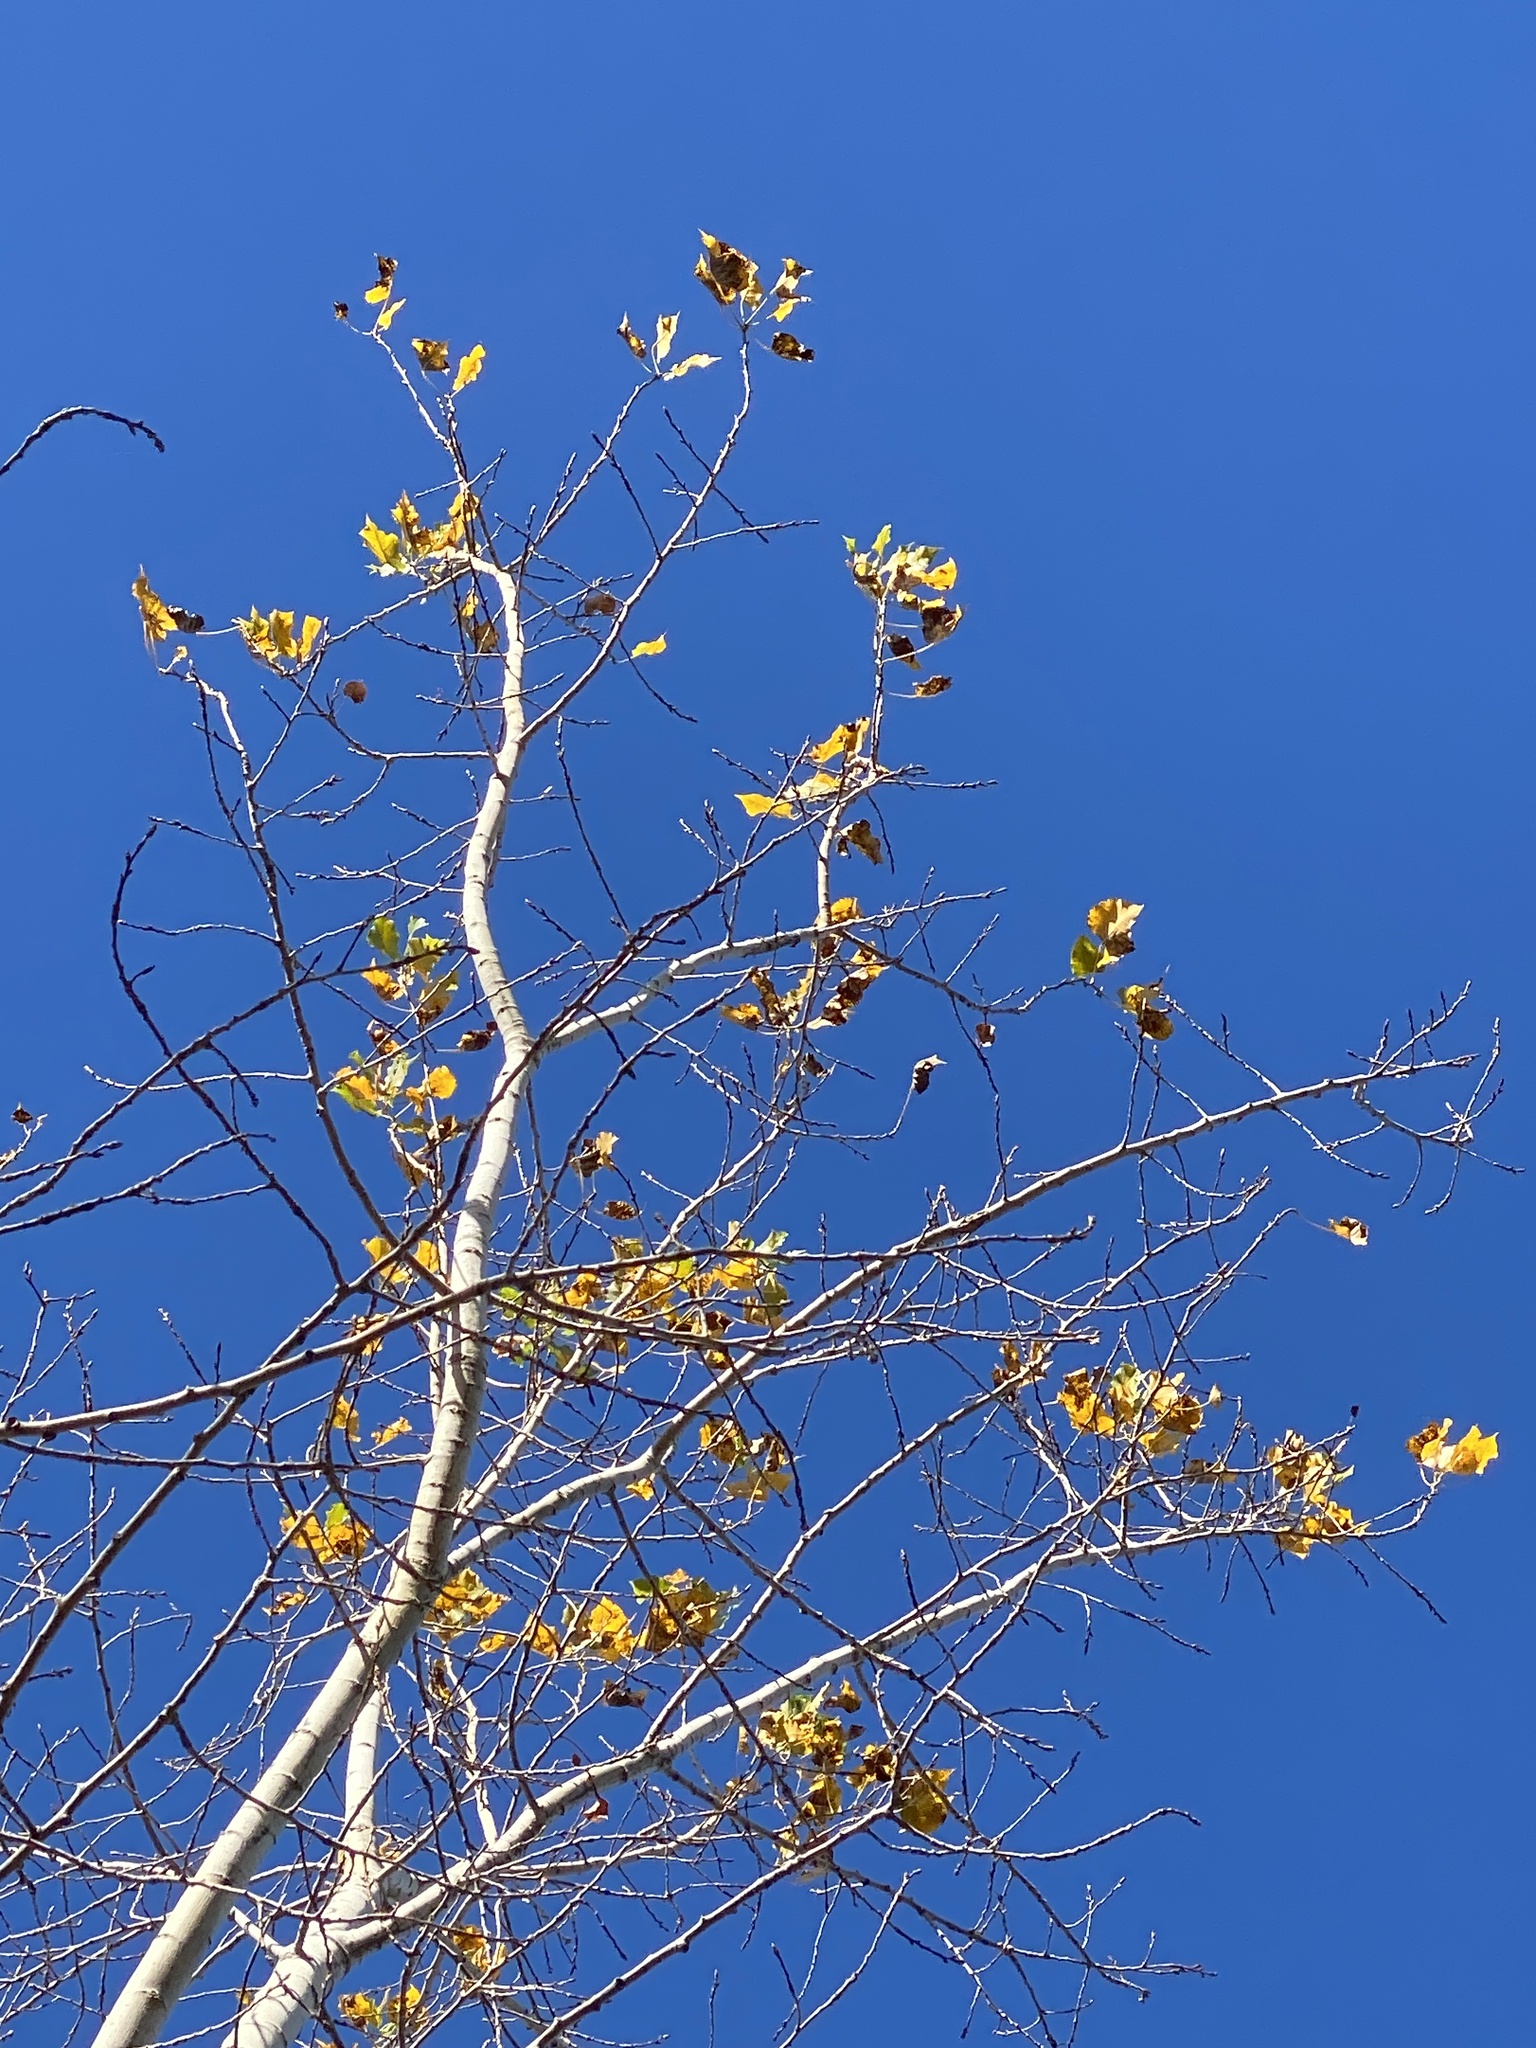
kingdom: Plantae
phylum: Tracheophyta
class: Magnoliopsida
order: Malpighiales
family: Salicaceae
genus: Populus
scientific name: Populus deltoides
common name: Eastern cottonwood
